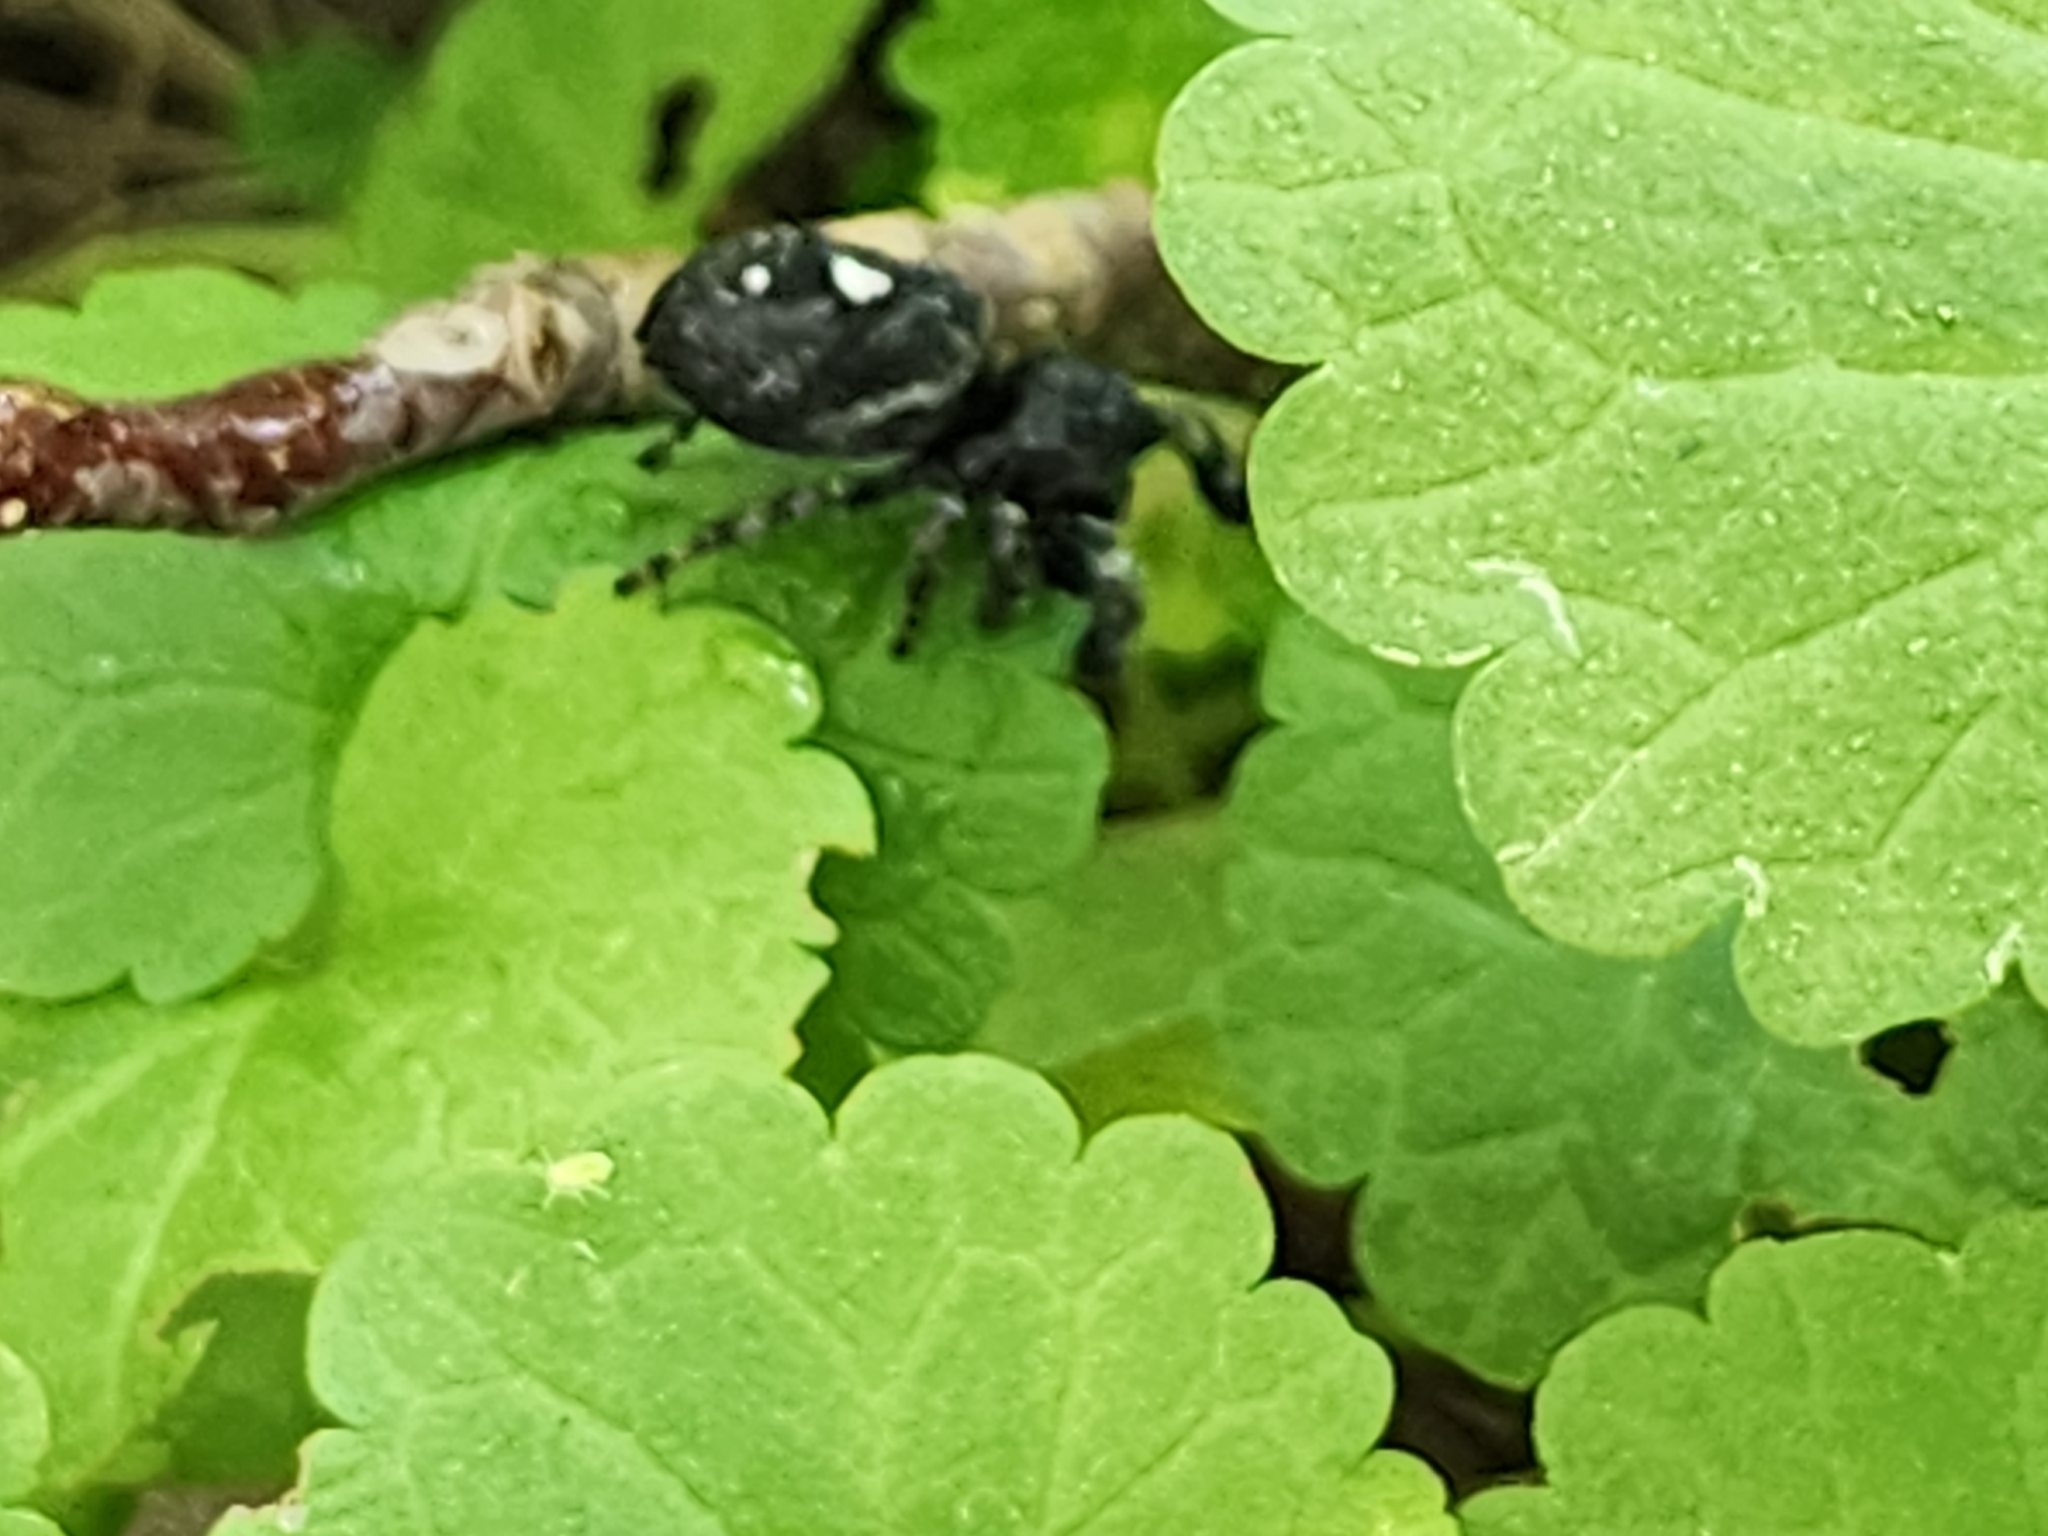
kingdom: Animalia
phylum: Arthropoda
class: Arachnida
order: Araneae
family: Salticidae
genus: Phidippus
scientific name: Phidippus audax
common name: Bold jumper
